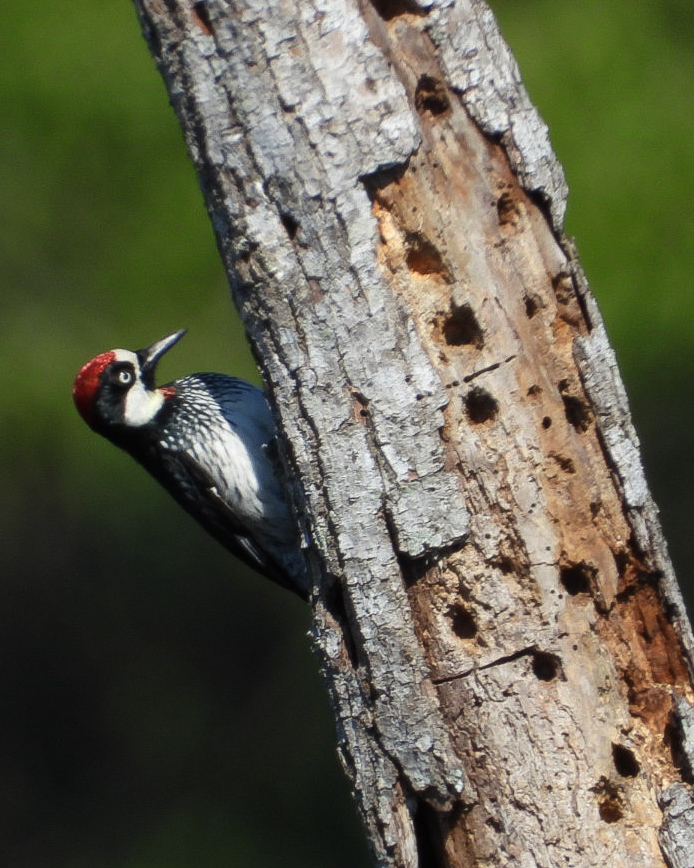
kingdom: Animalia
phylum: Chordata
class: Aves
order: Piciformes
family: Picidae
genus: Melanerpes
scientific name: Melanerpes formicivorus
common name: Acorn woodpecker
